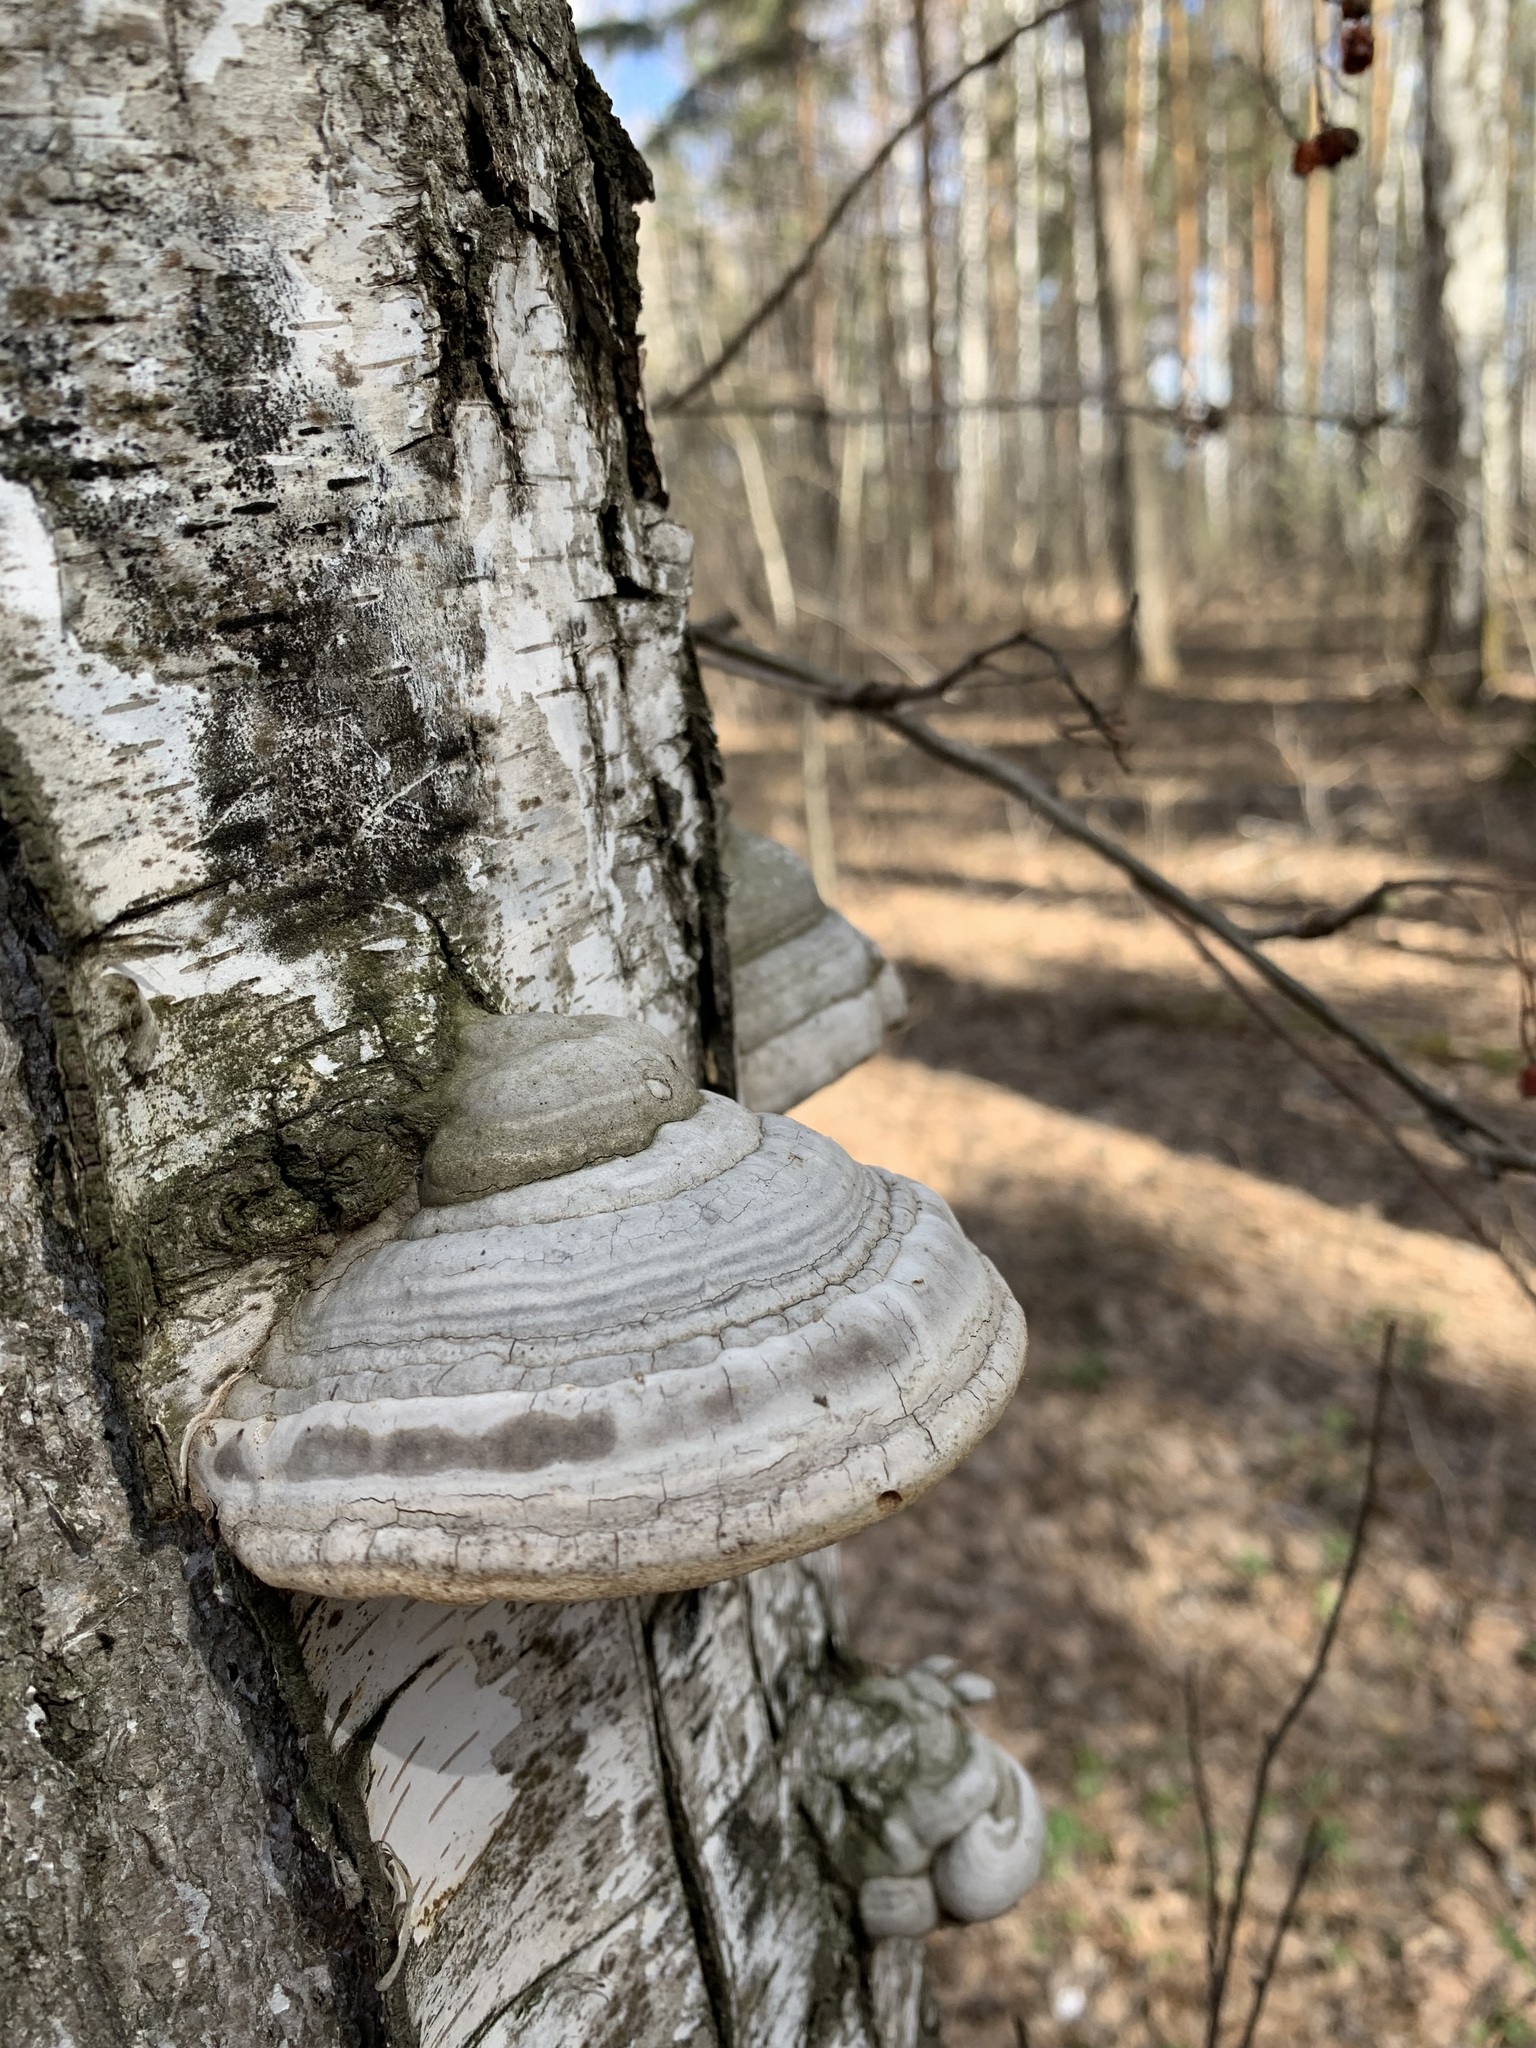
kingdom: Fungi
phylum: Basidiomycota
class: Agaricomycetes
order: Polyporales
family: Polyporaceae
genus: Fomes
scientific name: Fomes fomentarius
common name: Hoof fungus
